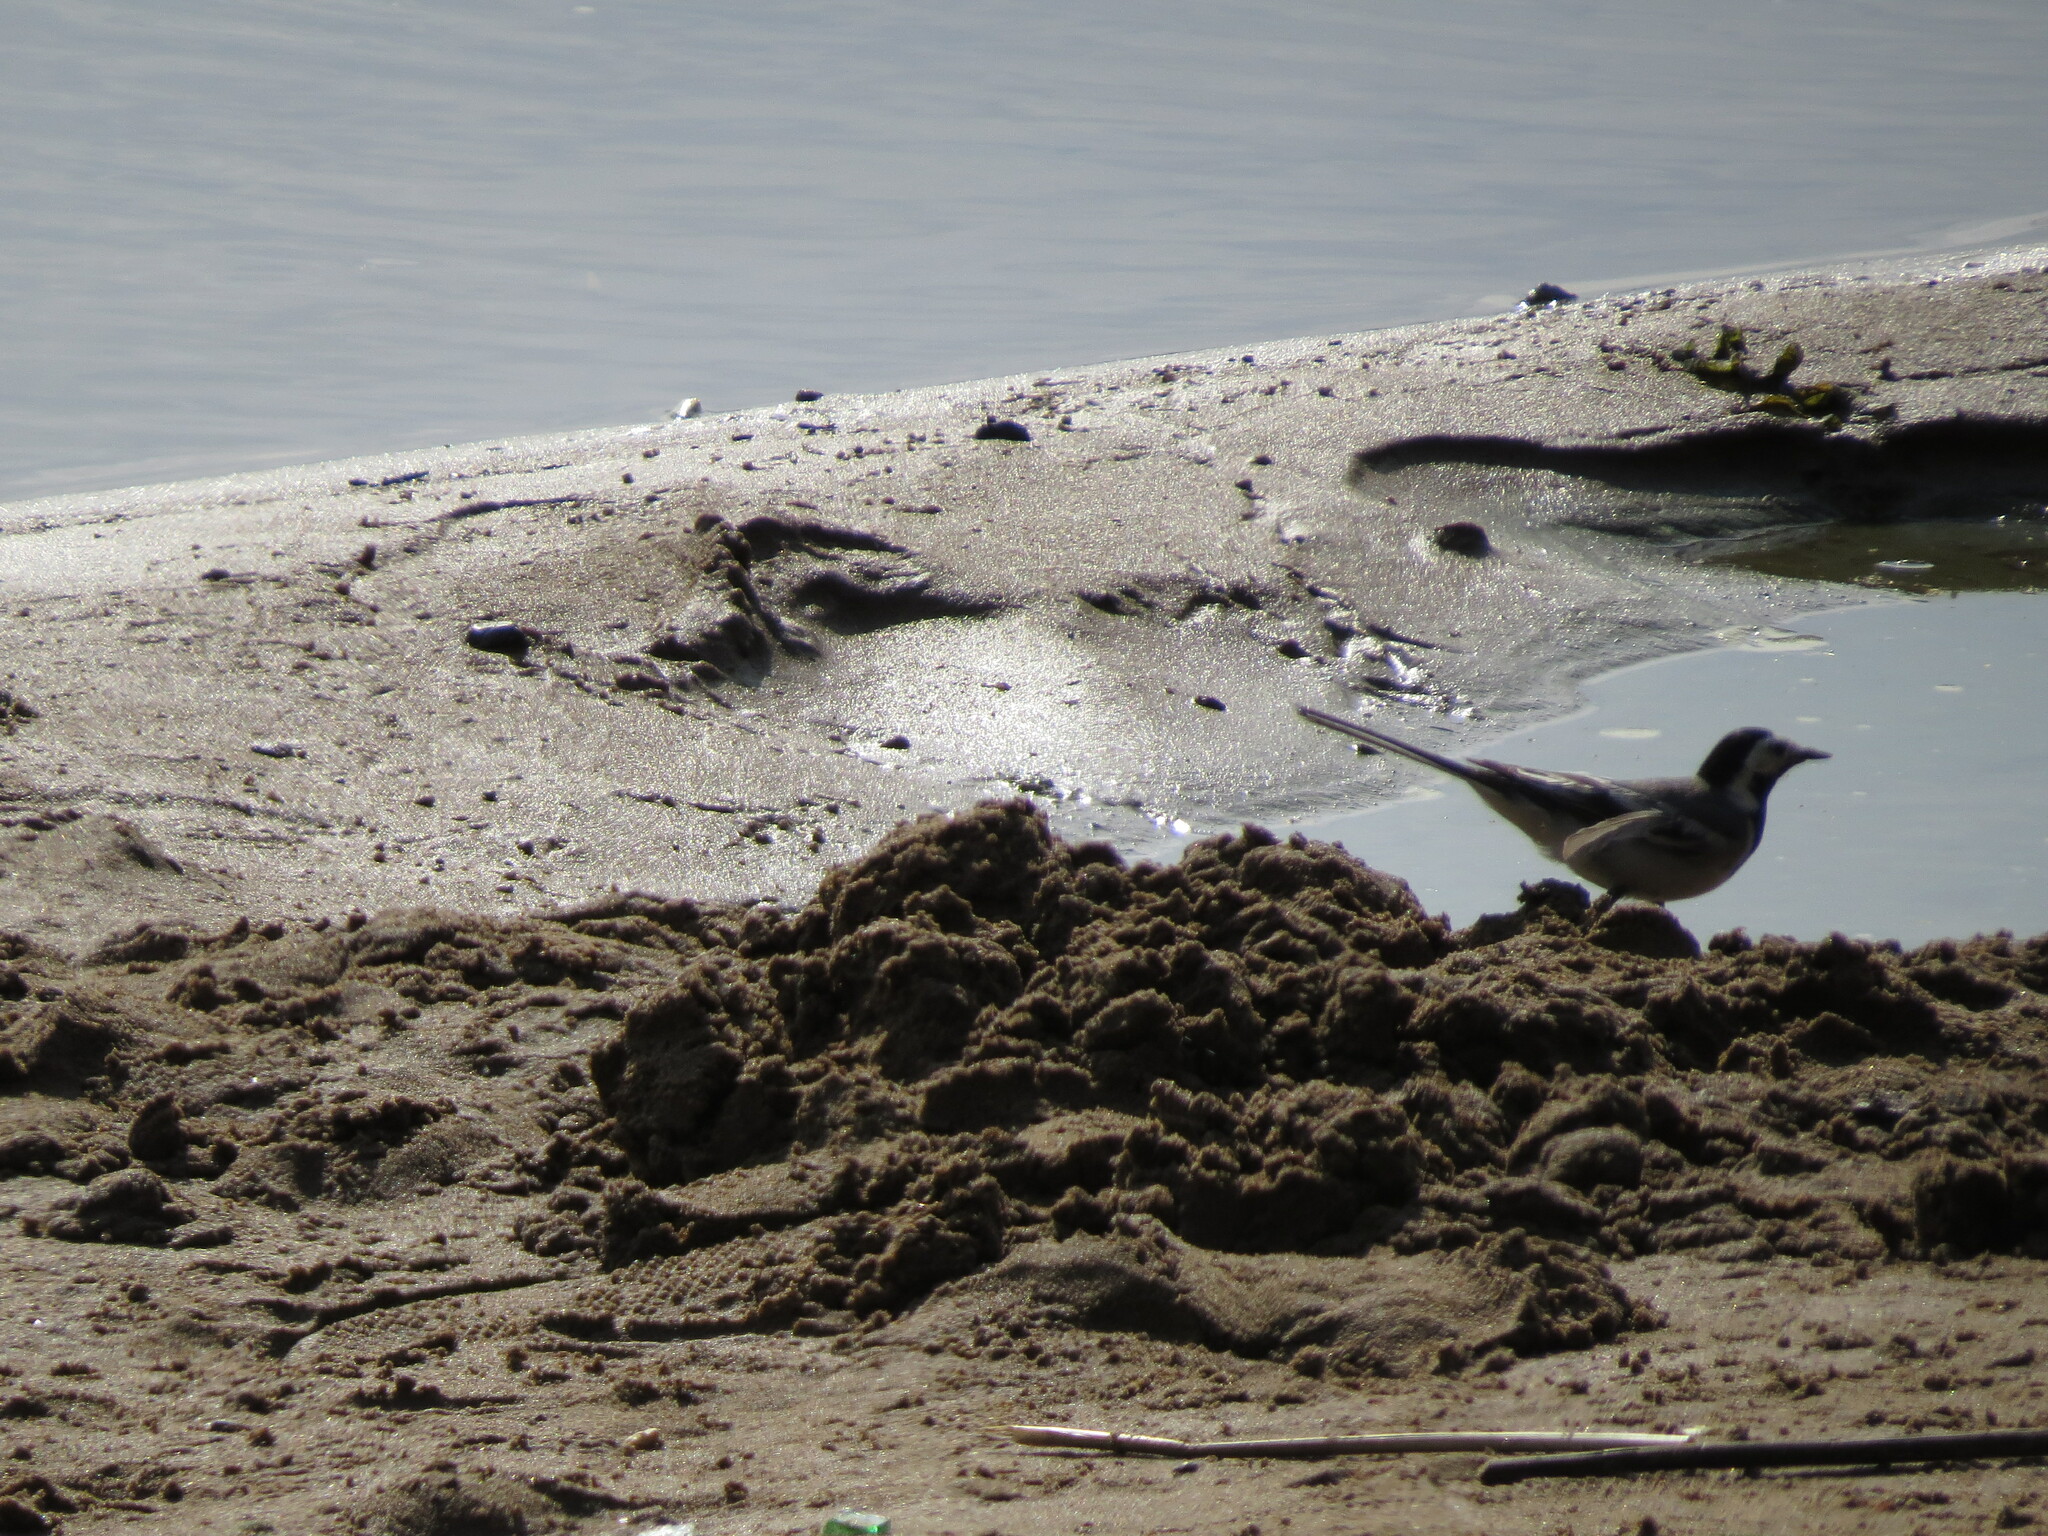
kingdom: Animalia
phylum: Chordata
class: Aves
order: Passeriformes
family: Motacillidae
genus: Motacilla
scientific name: Motacilla alba
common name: White wagtail
